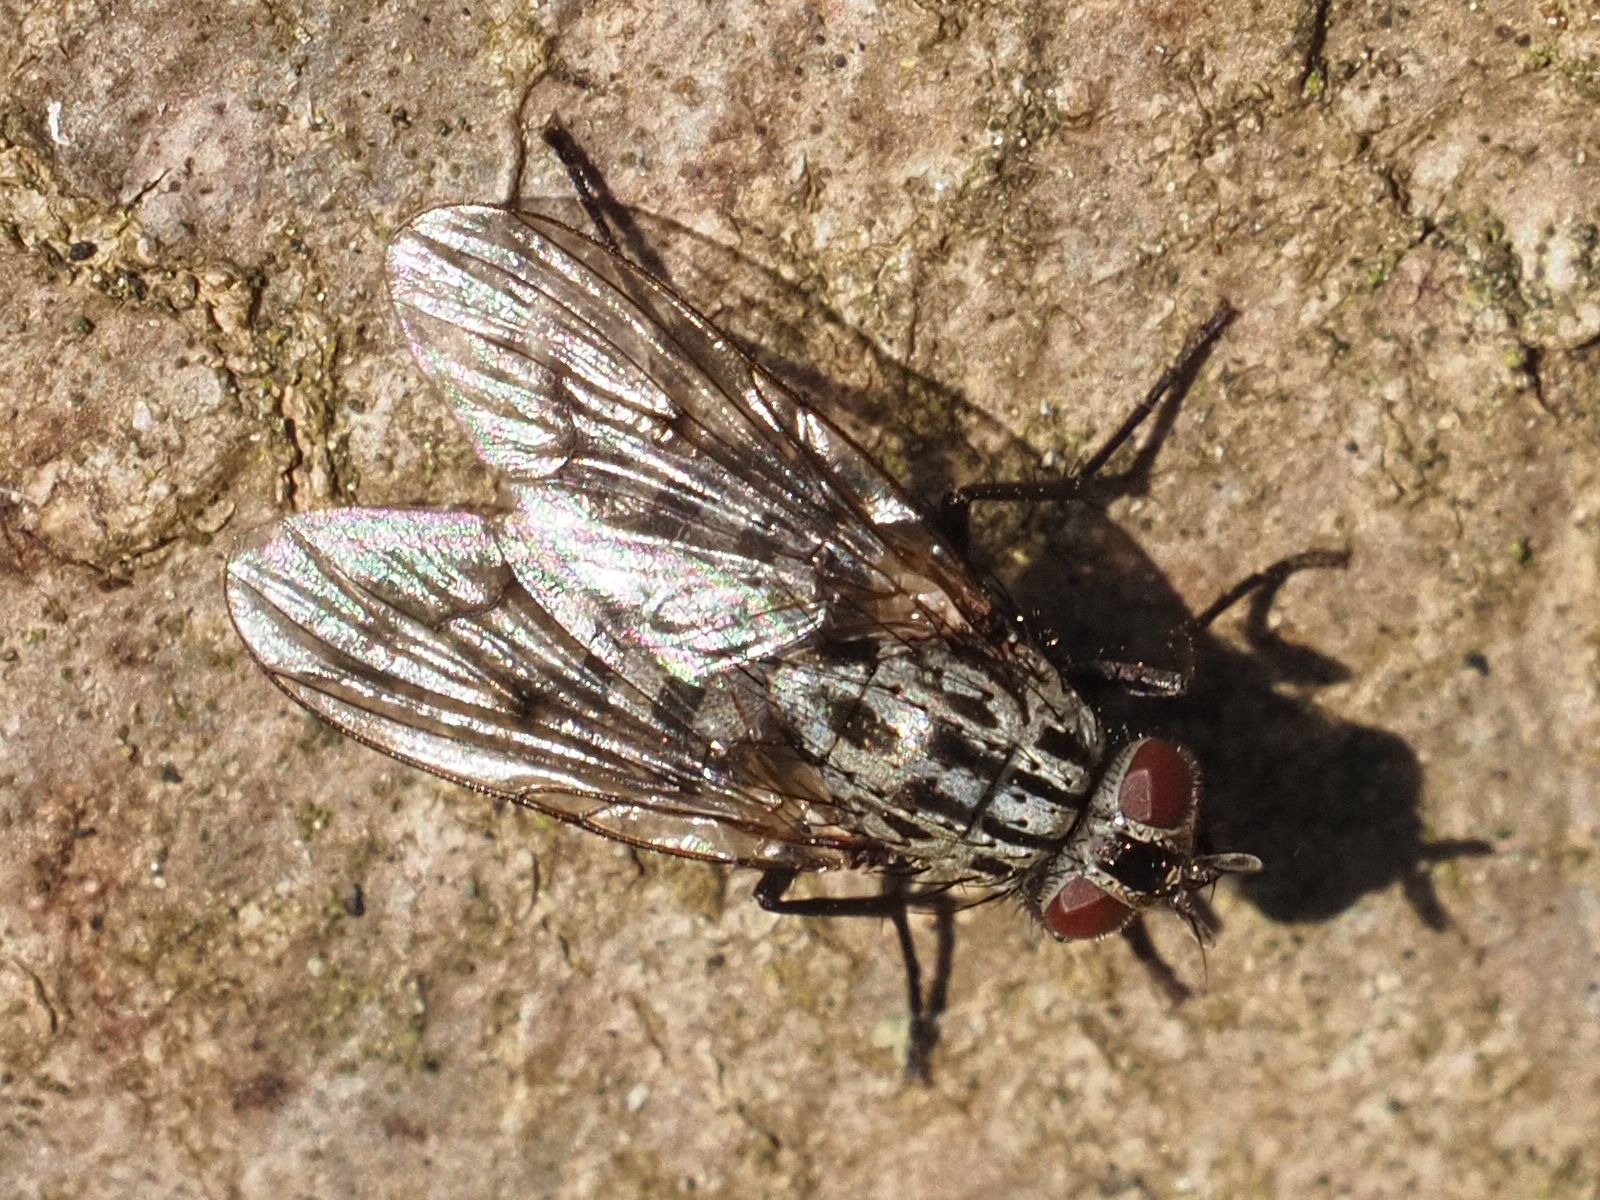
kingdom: Animalia
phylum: Arthropoda
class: Insecta
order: Diptera
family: Muscidae
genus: Phaonia
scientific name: Phaonia trimaculata
